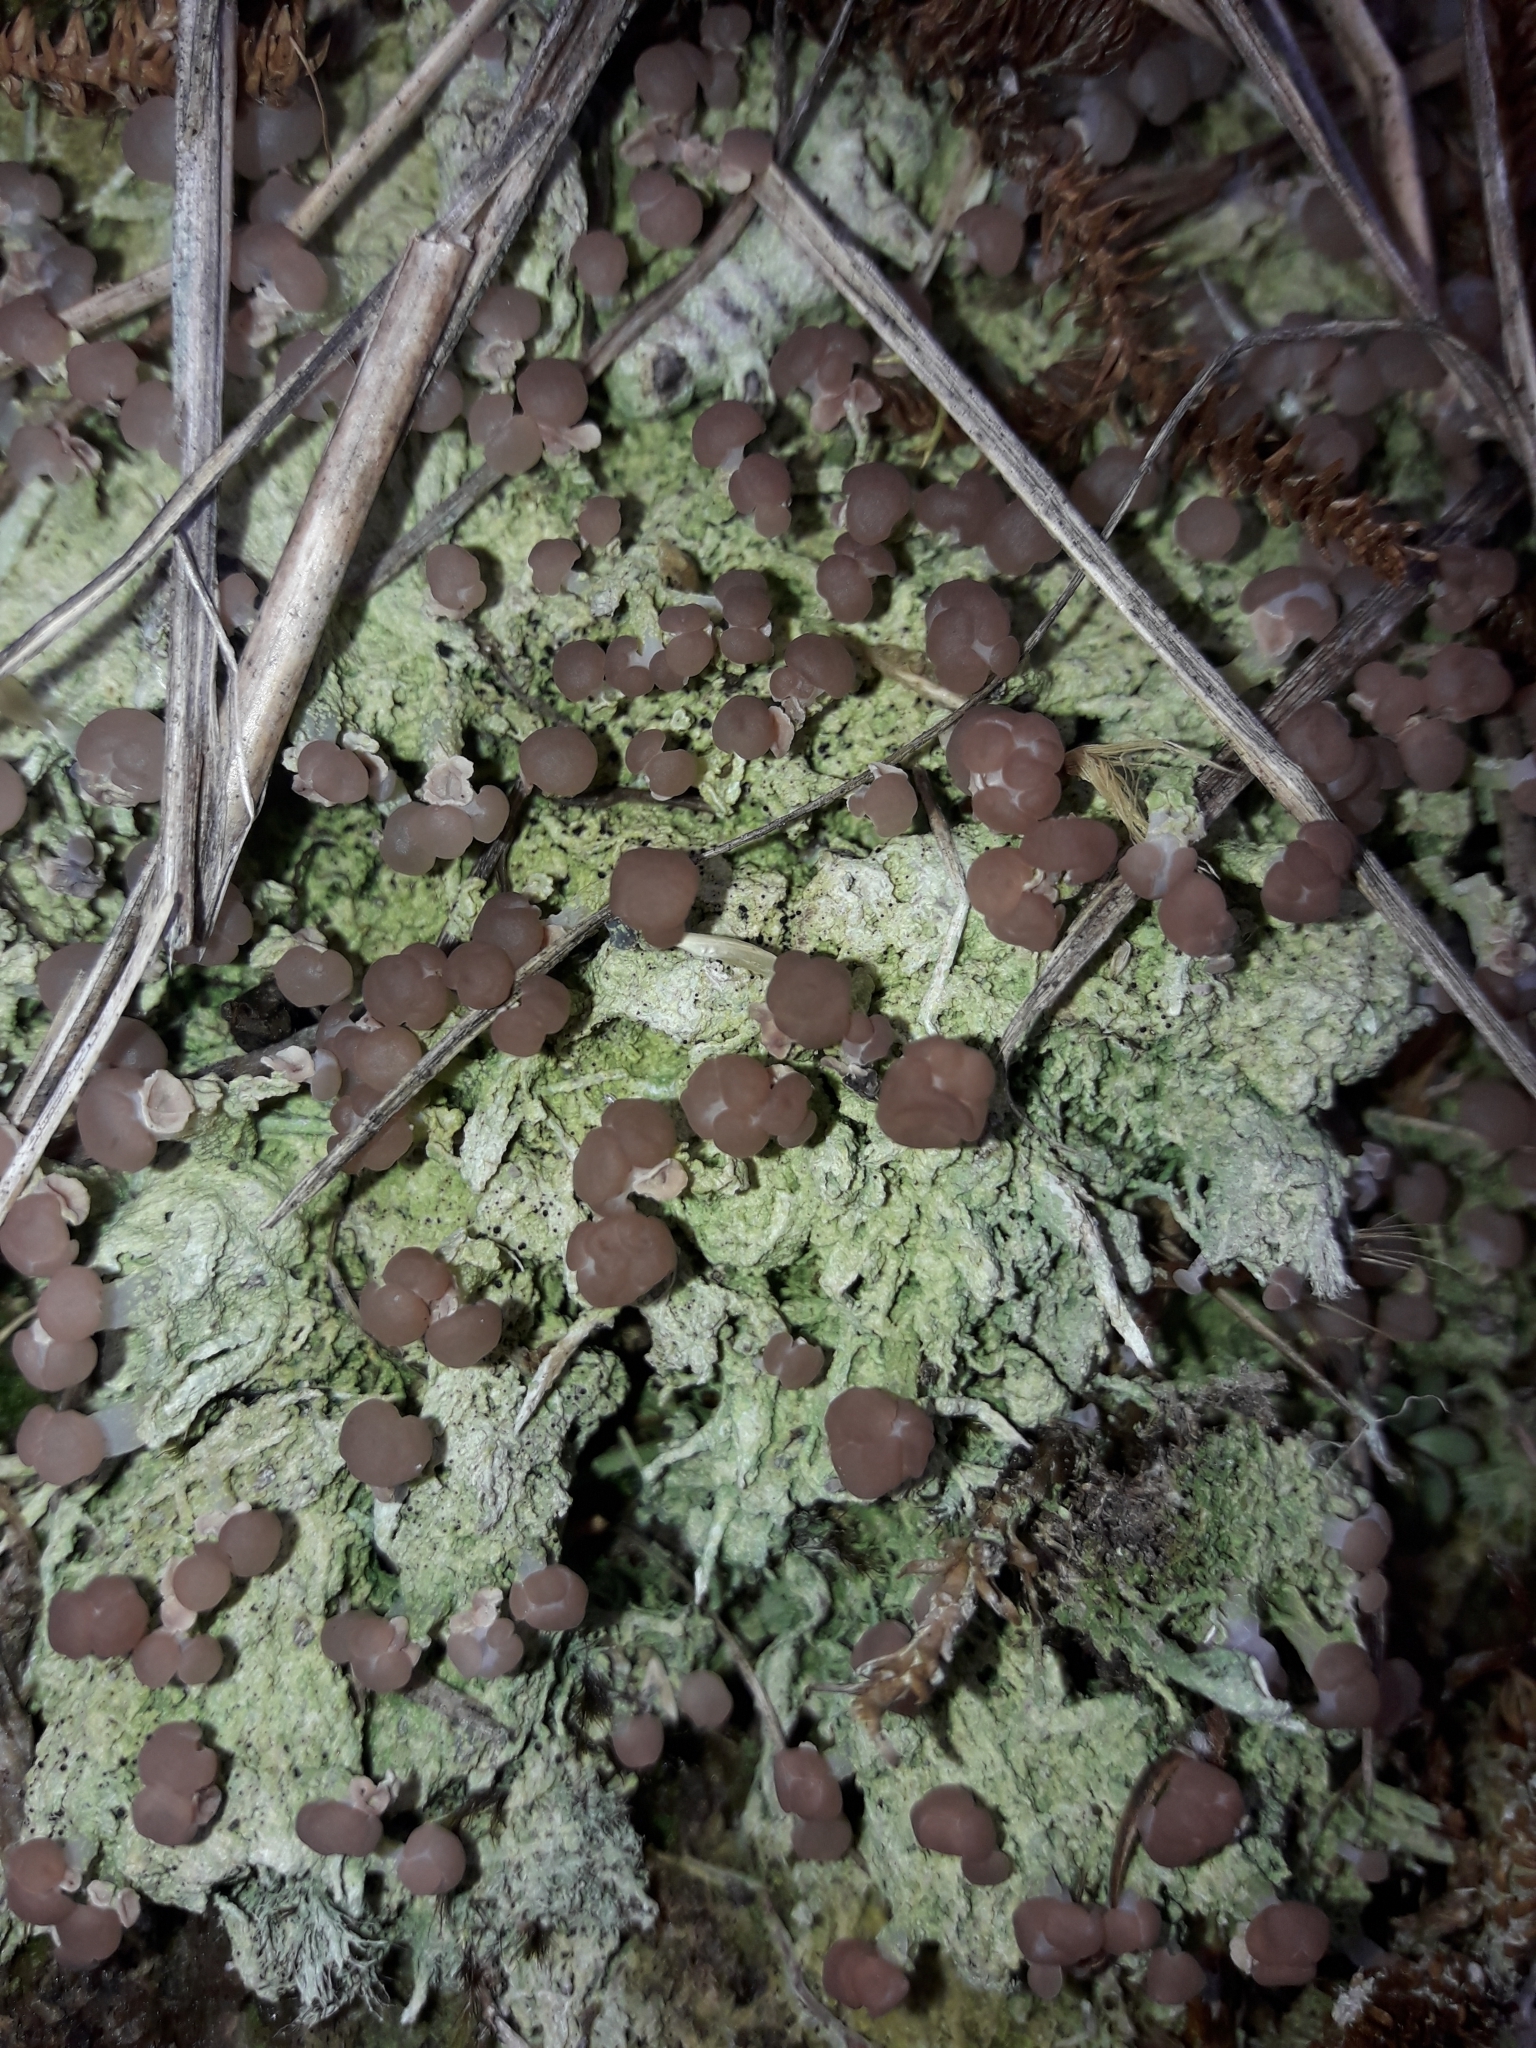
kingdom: Fungi
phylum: Ascomycota
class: Lecanoromycetes
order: Baeomycetales
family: Baeomycetaceae
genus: Baeomyces
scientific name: Baeomyces heteromorphus
